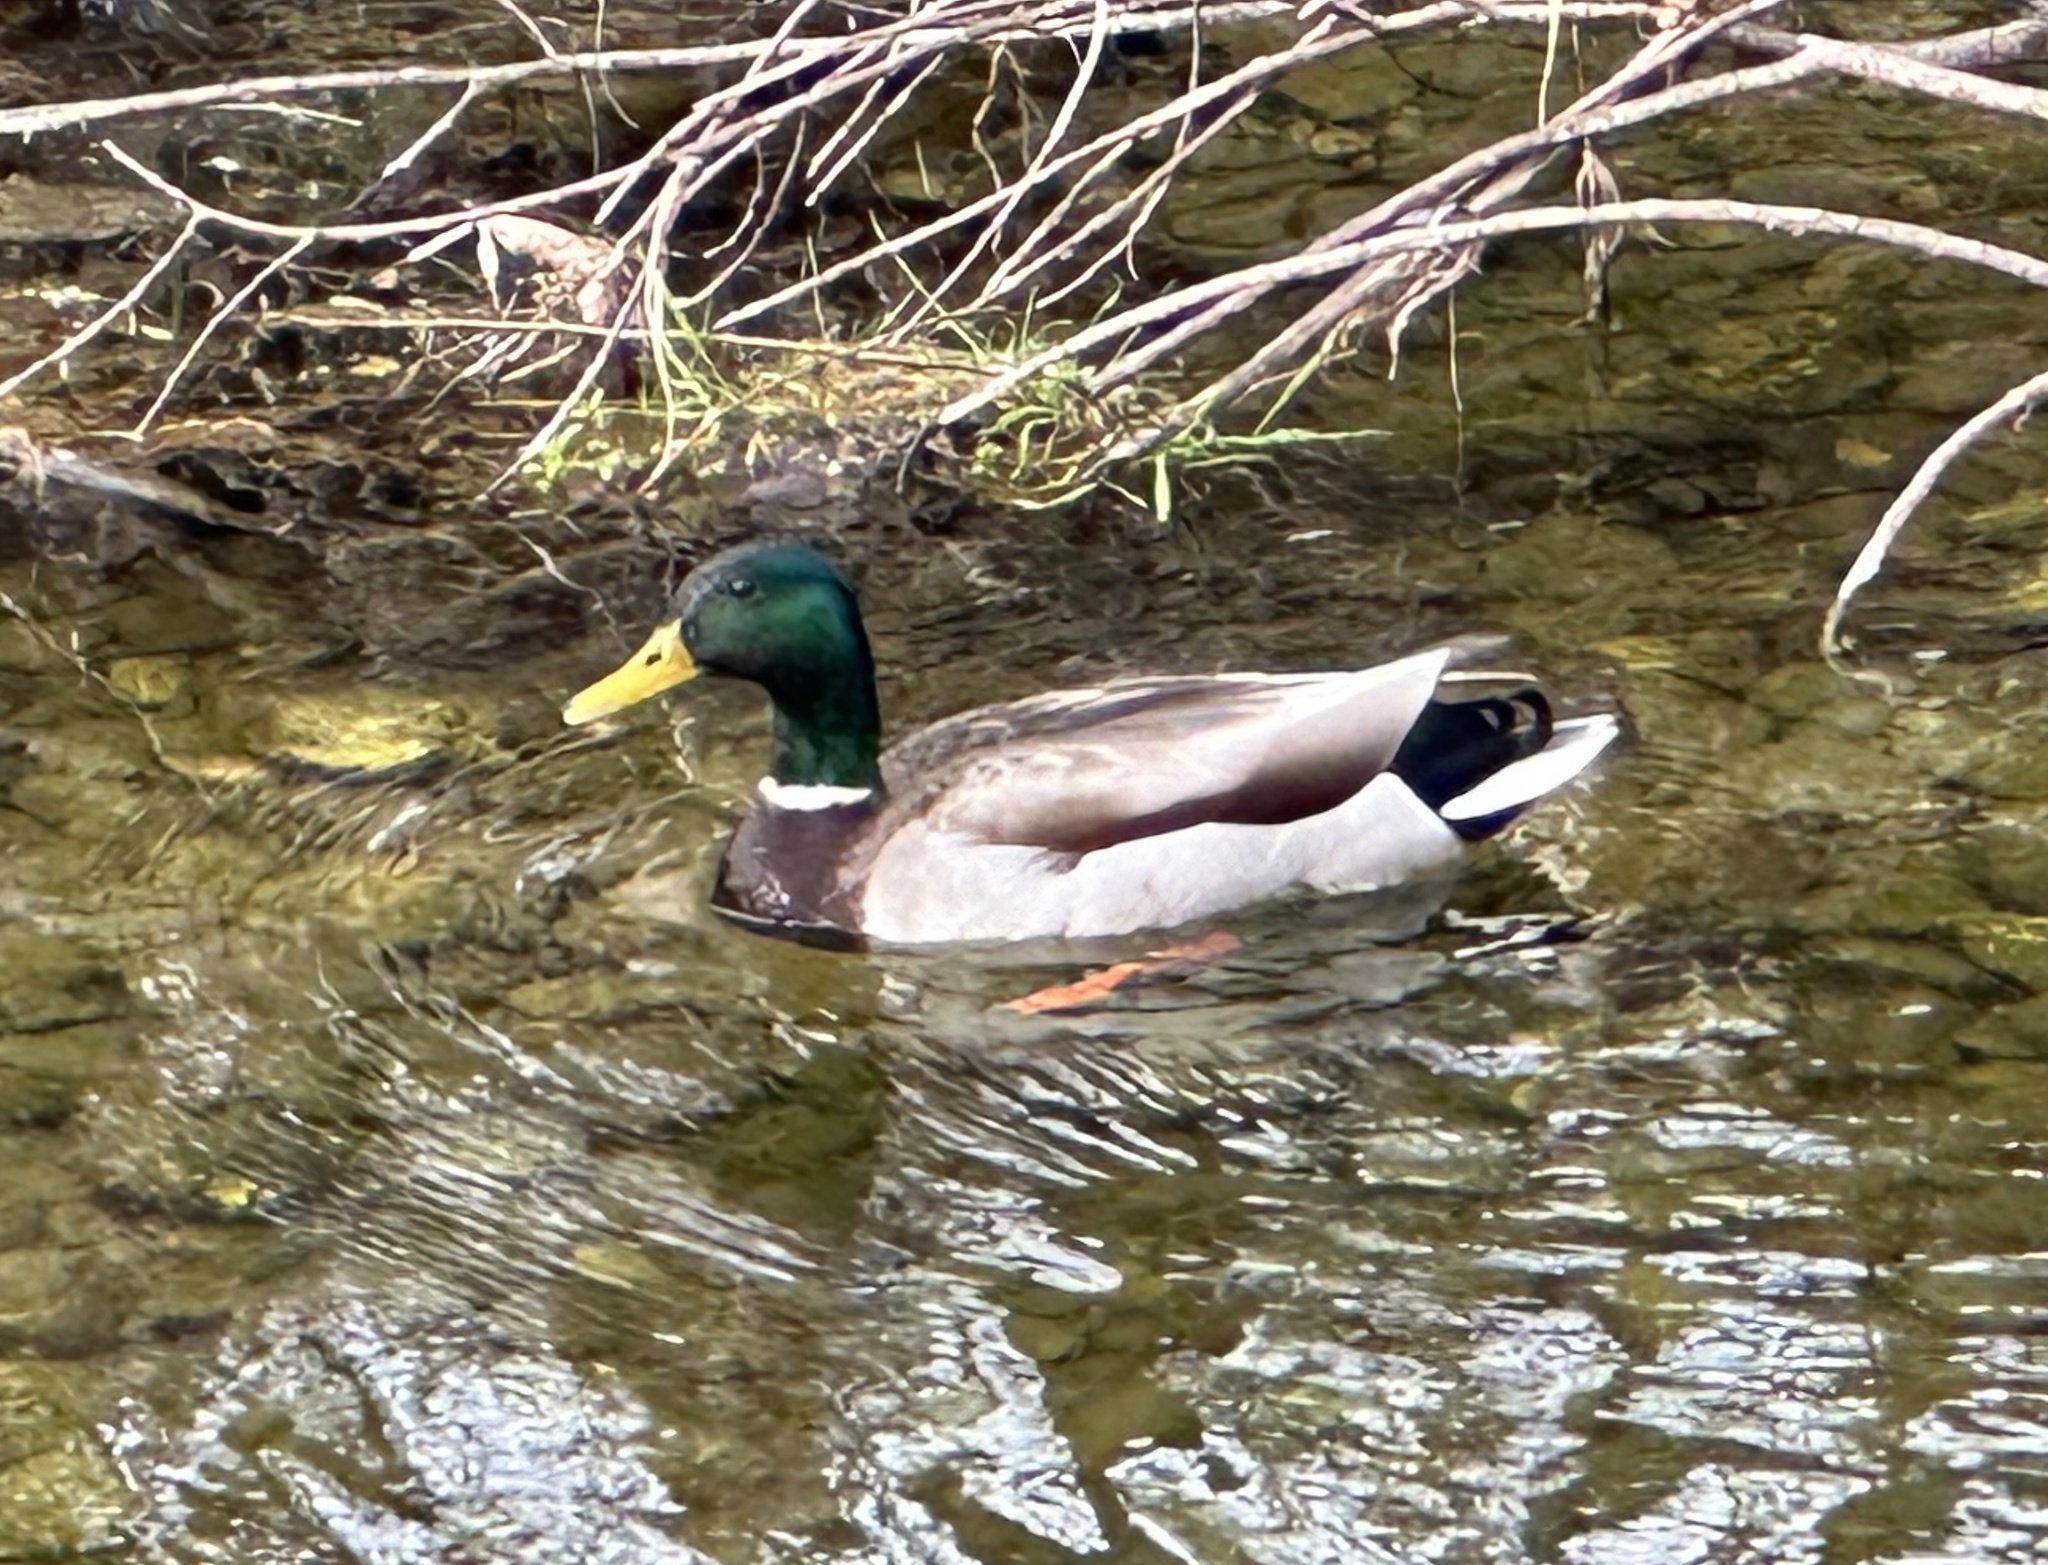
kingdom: Animalia
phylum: Chordata
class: Aves
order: Anseriformes
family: Anatidae
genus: Anas
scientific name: Anas platyrhynchos
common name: Mallard
